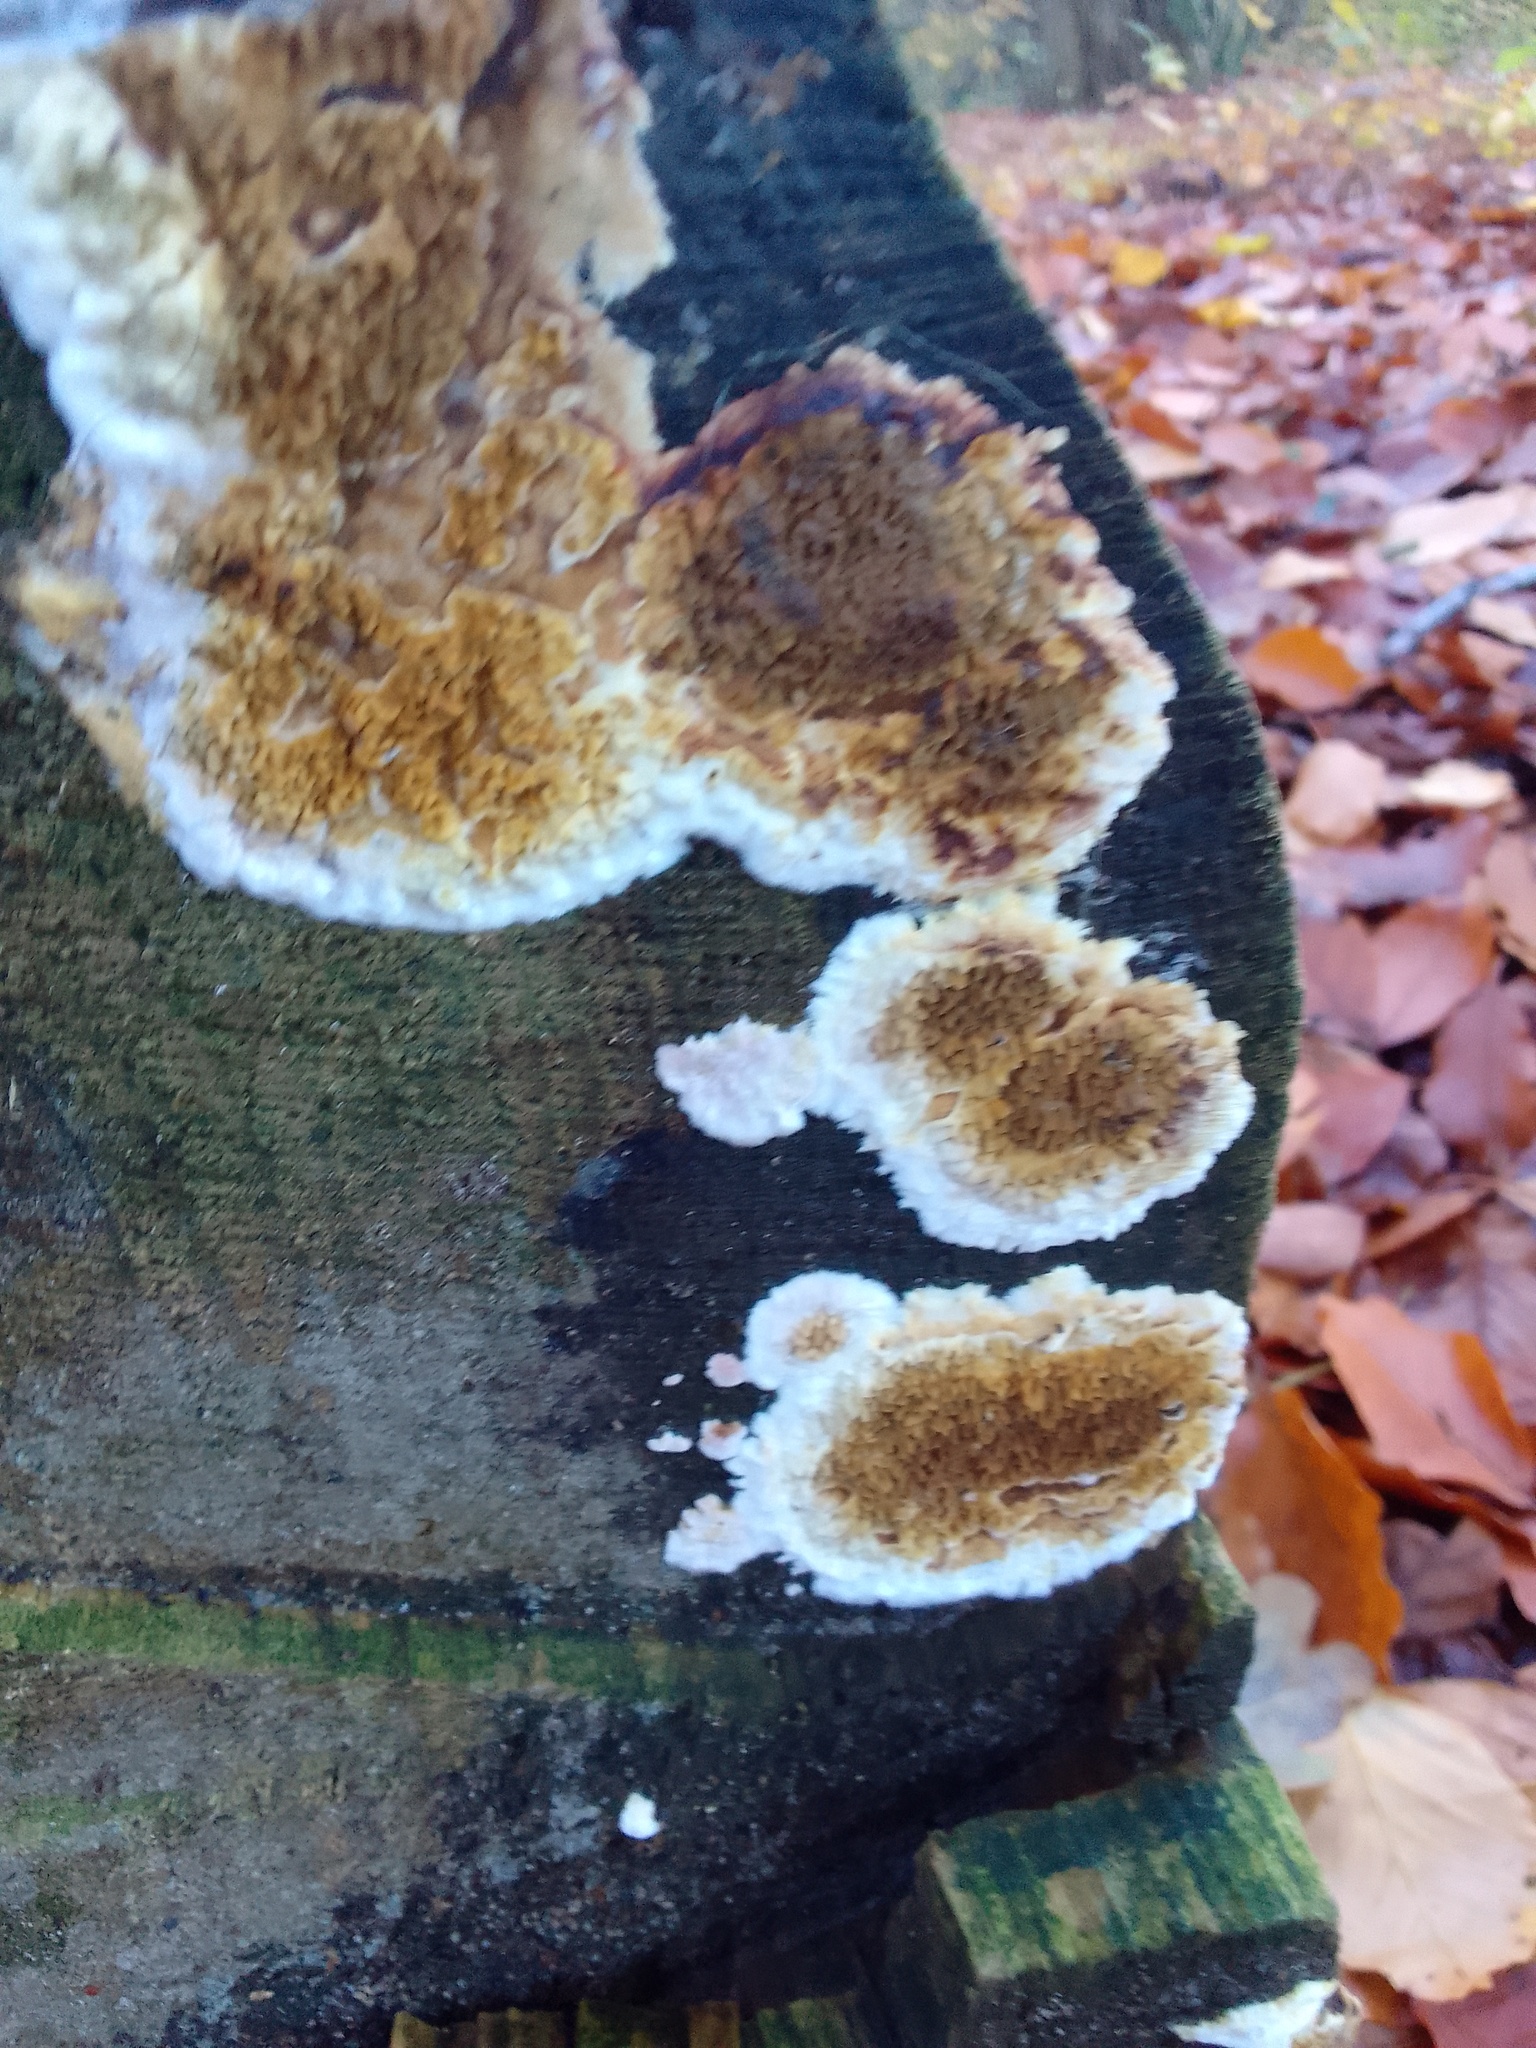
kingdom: Fungi
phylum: Basidiomycota
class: Agaricomycetes
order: Boletales
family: Serpulaceae
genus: Serpula
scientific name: Serpula himantioides
